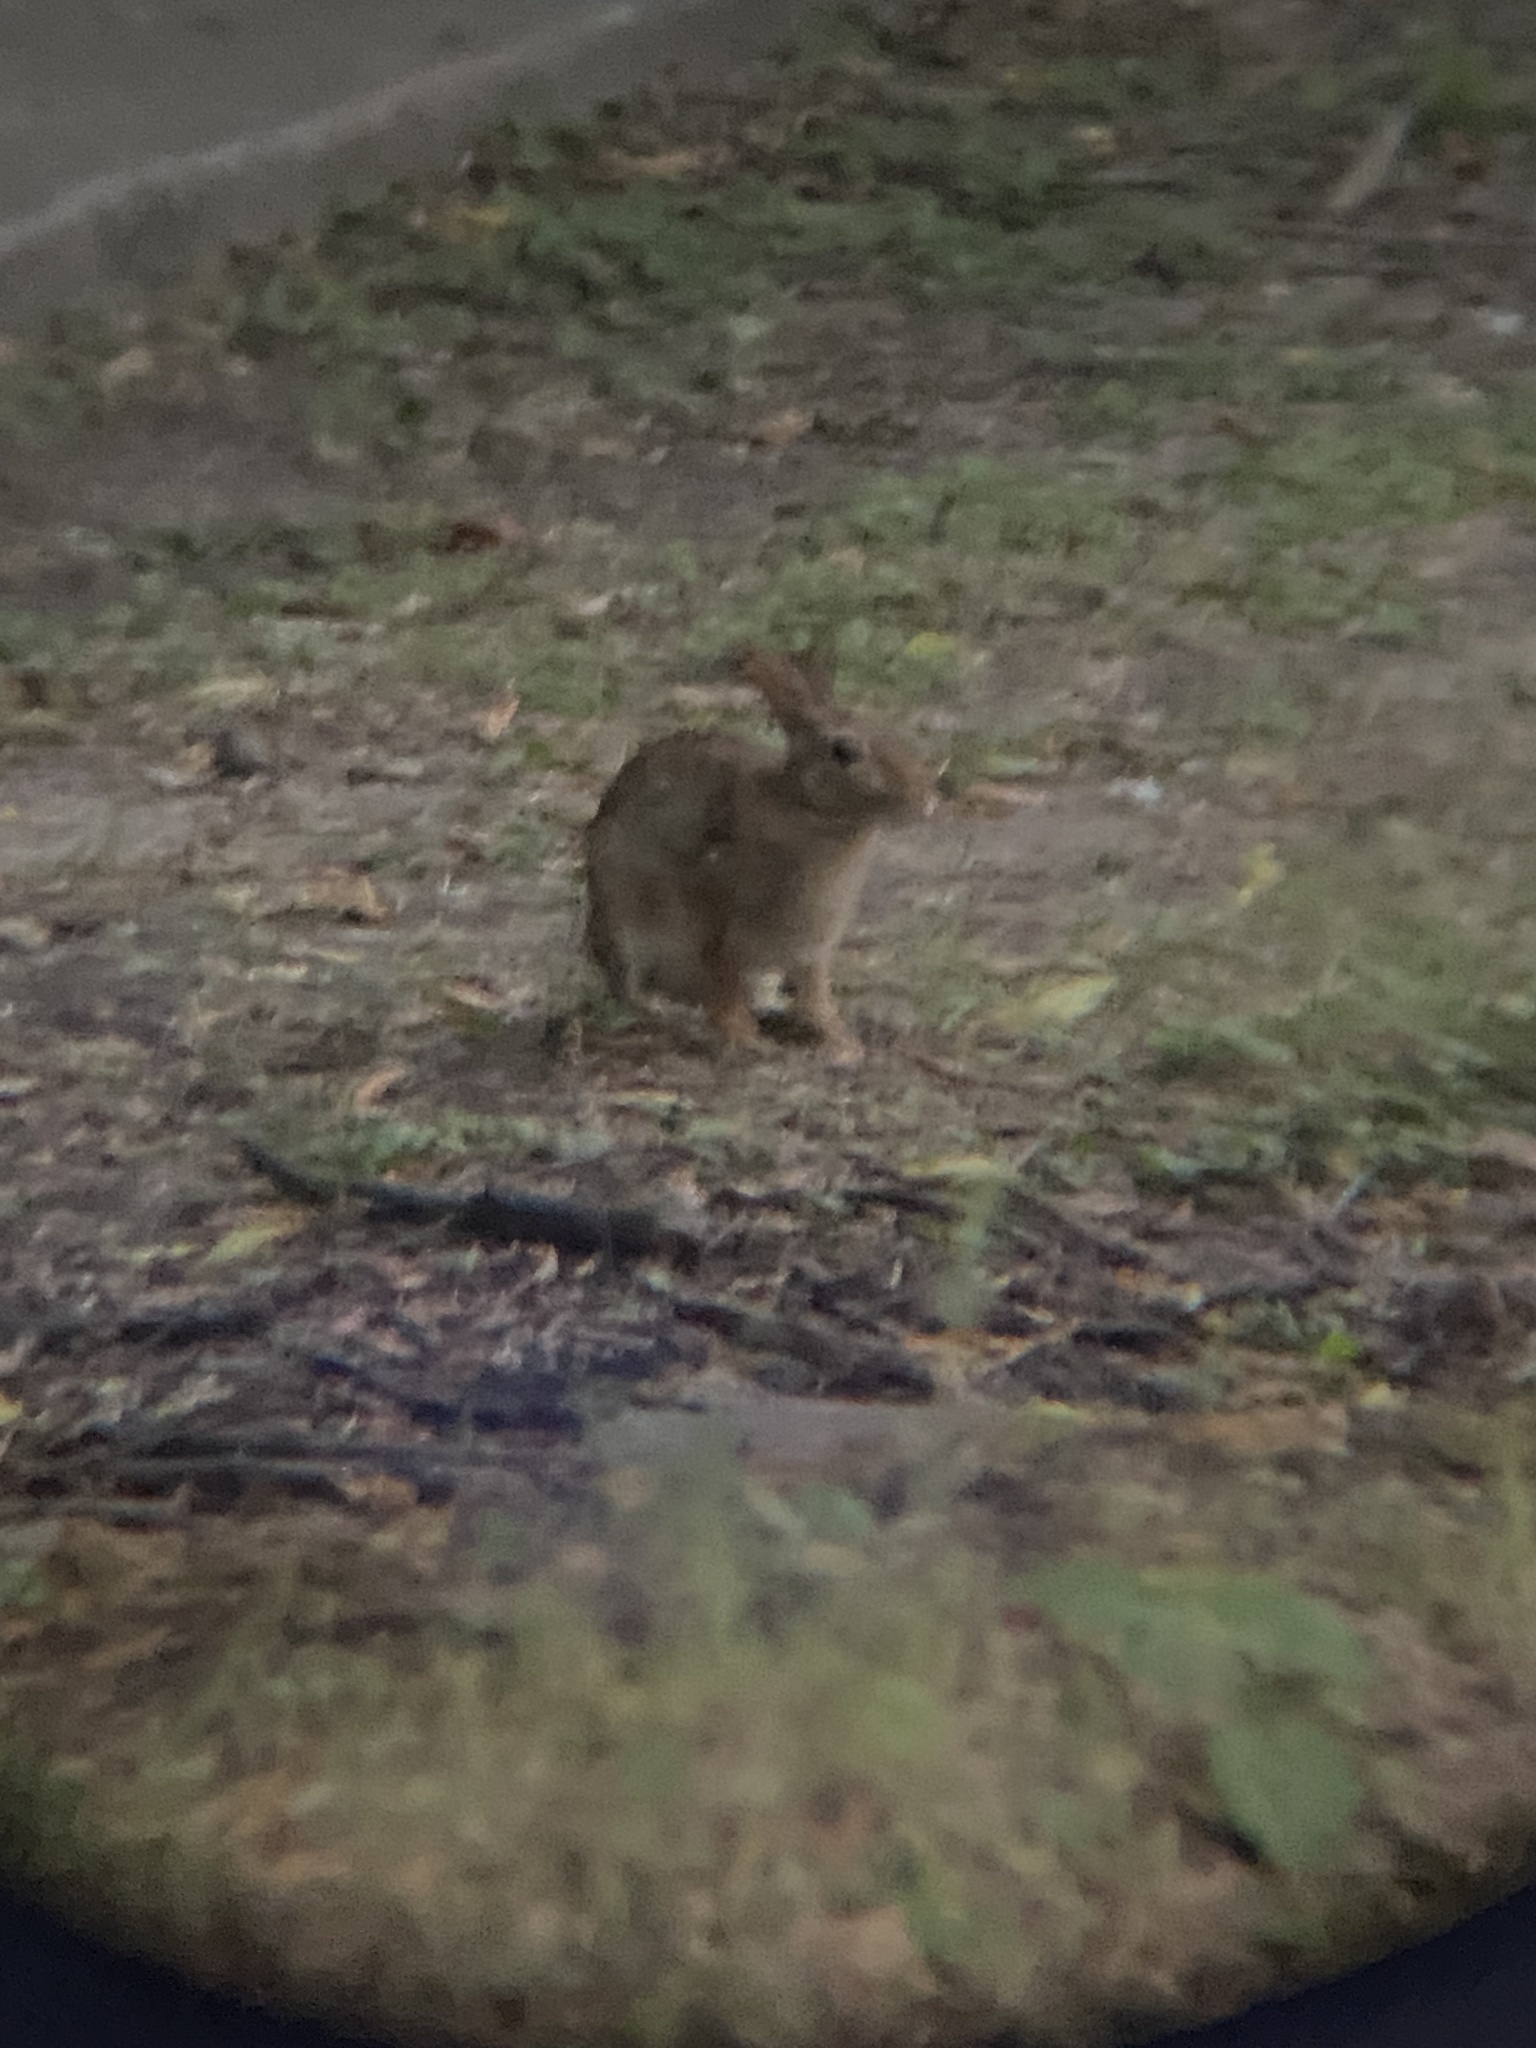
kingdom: Animalia
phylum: Chordata
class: Mammalia
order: Lagomorpha
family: Leporidae
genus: Sylvilagus
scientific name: Sylvilagus floridanus
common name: Eastern cottontail
